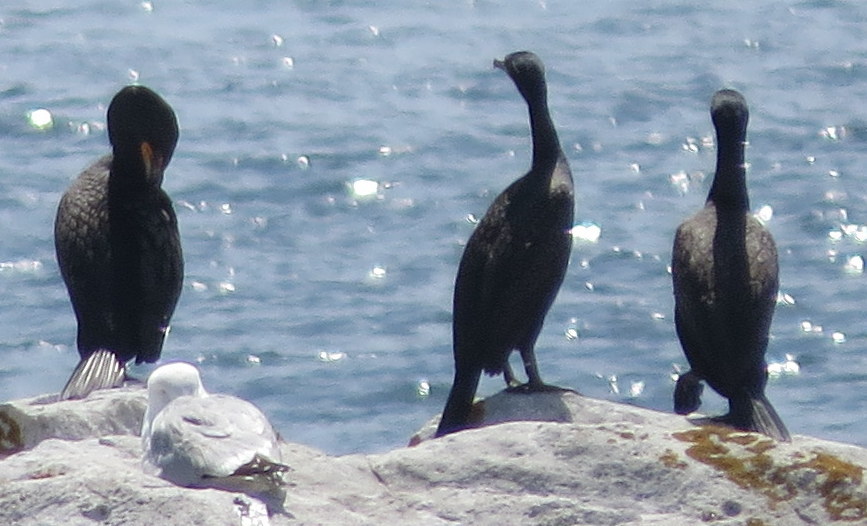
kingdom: Animalia
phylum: Chordata
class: Aves
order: Suliformes
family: Phalacrocoracidae
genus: Phalacrocorax
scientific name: Phalacrocorax auritus
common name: Double-crested cormorant
